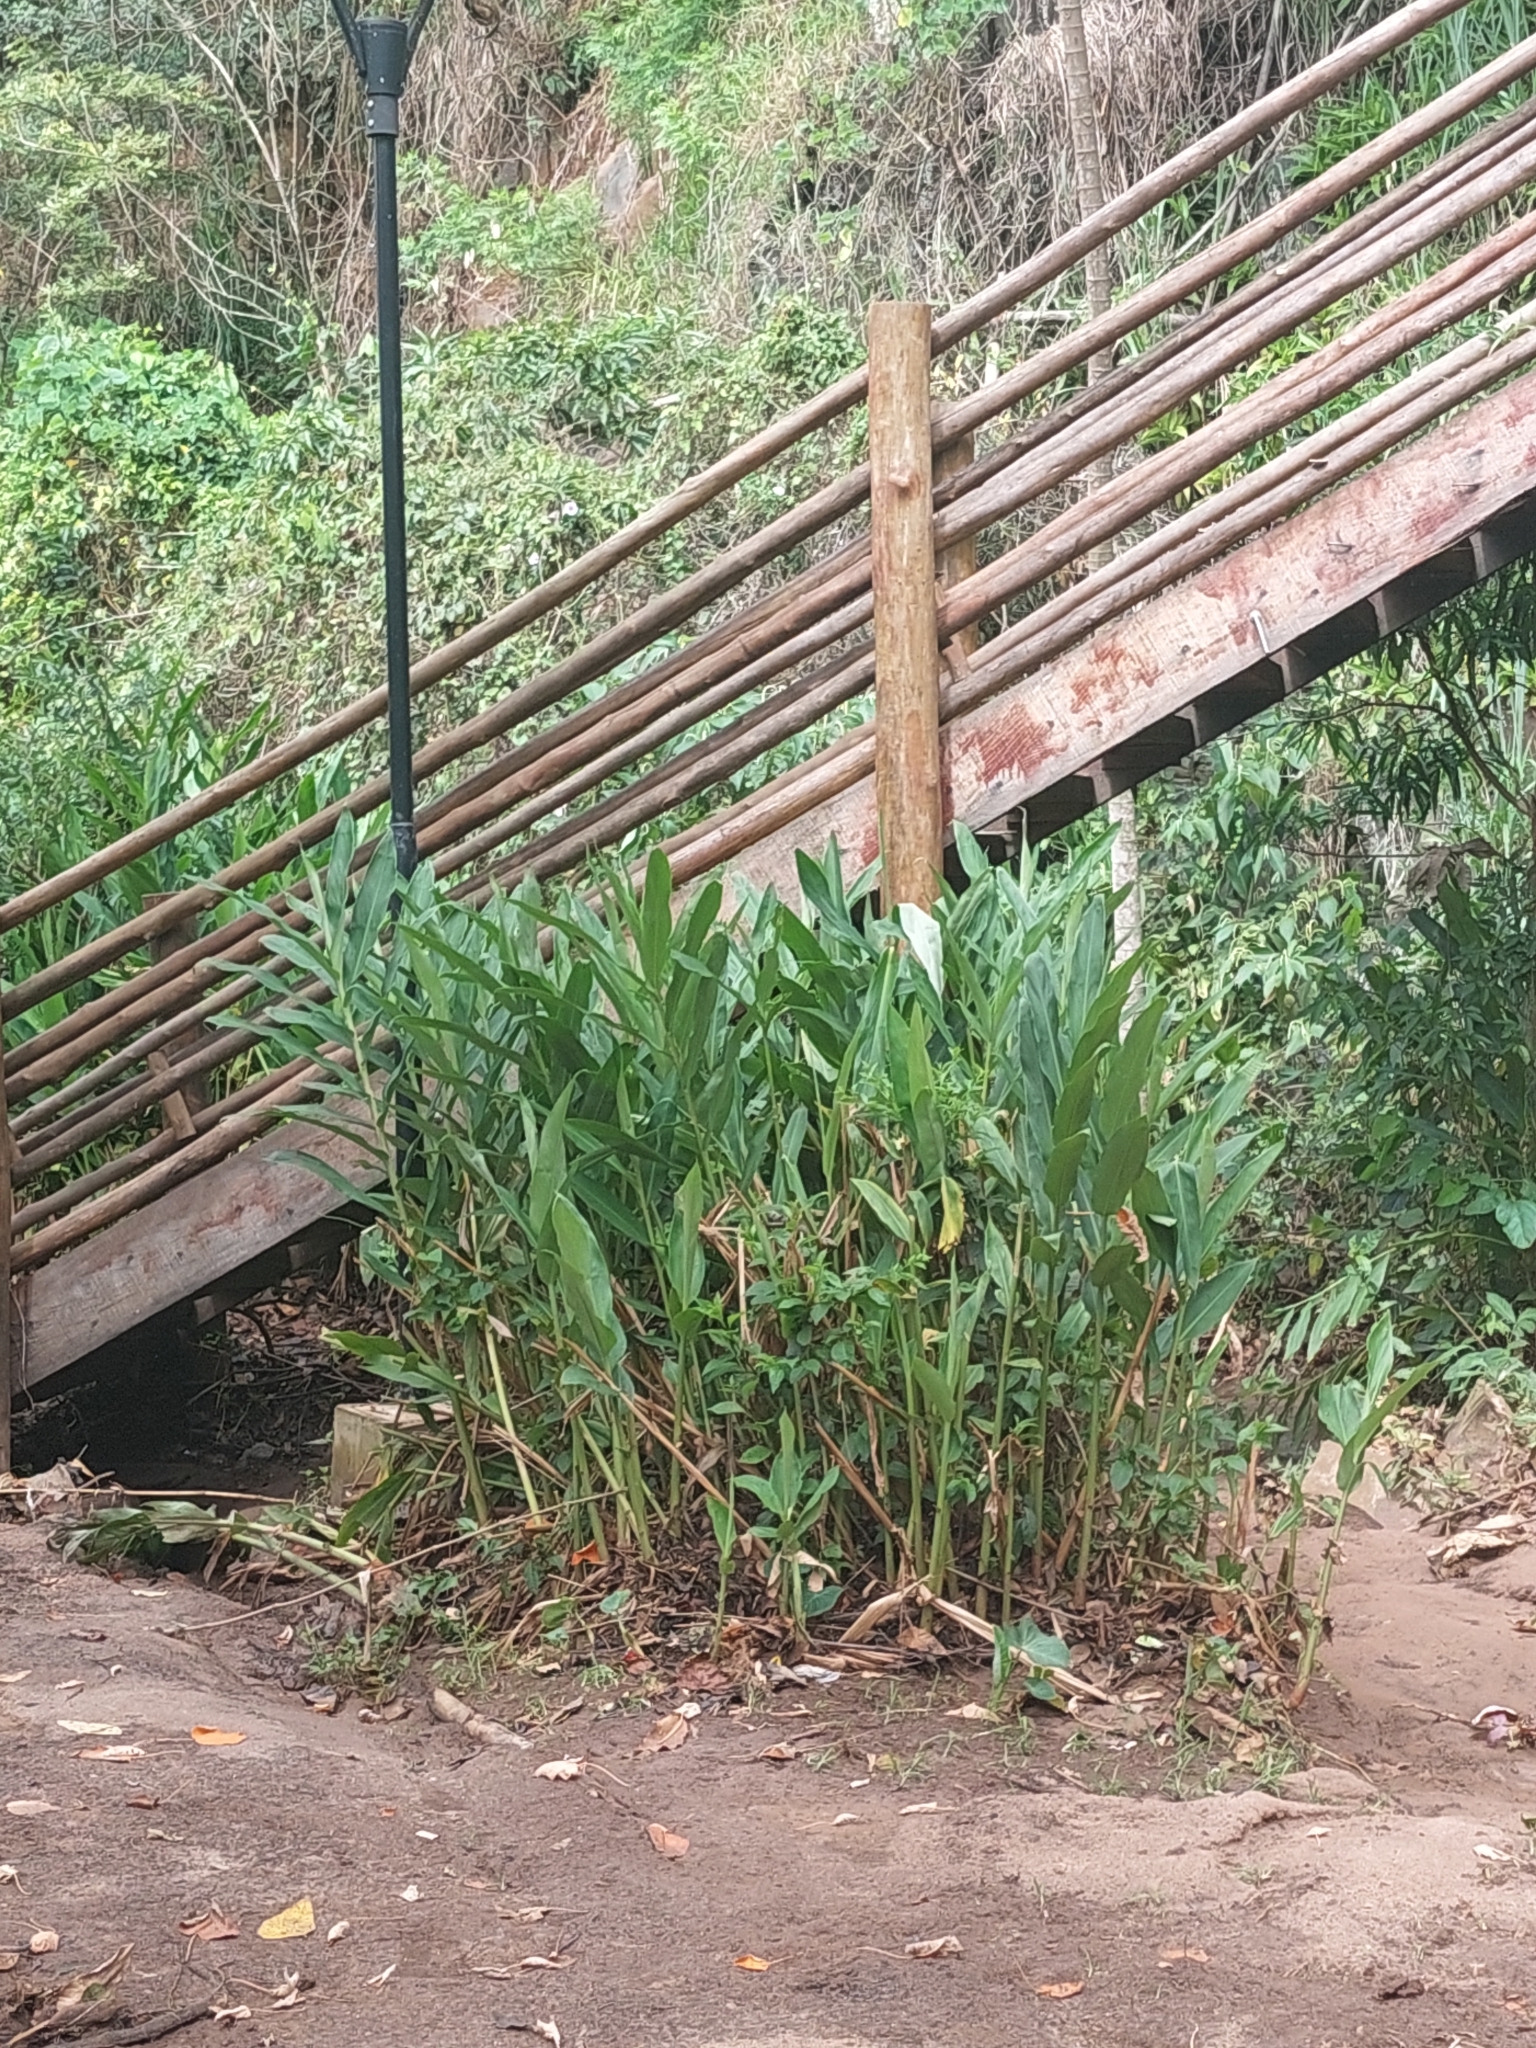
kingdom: Plantae
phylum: Tracheophyta
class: Liliopsida
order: Zingiberales
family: Zingiberaceae
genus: Hedychium
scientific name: Hedychium coronarium
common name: White garland-lily
